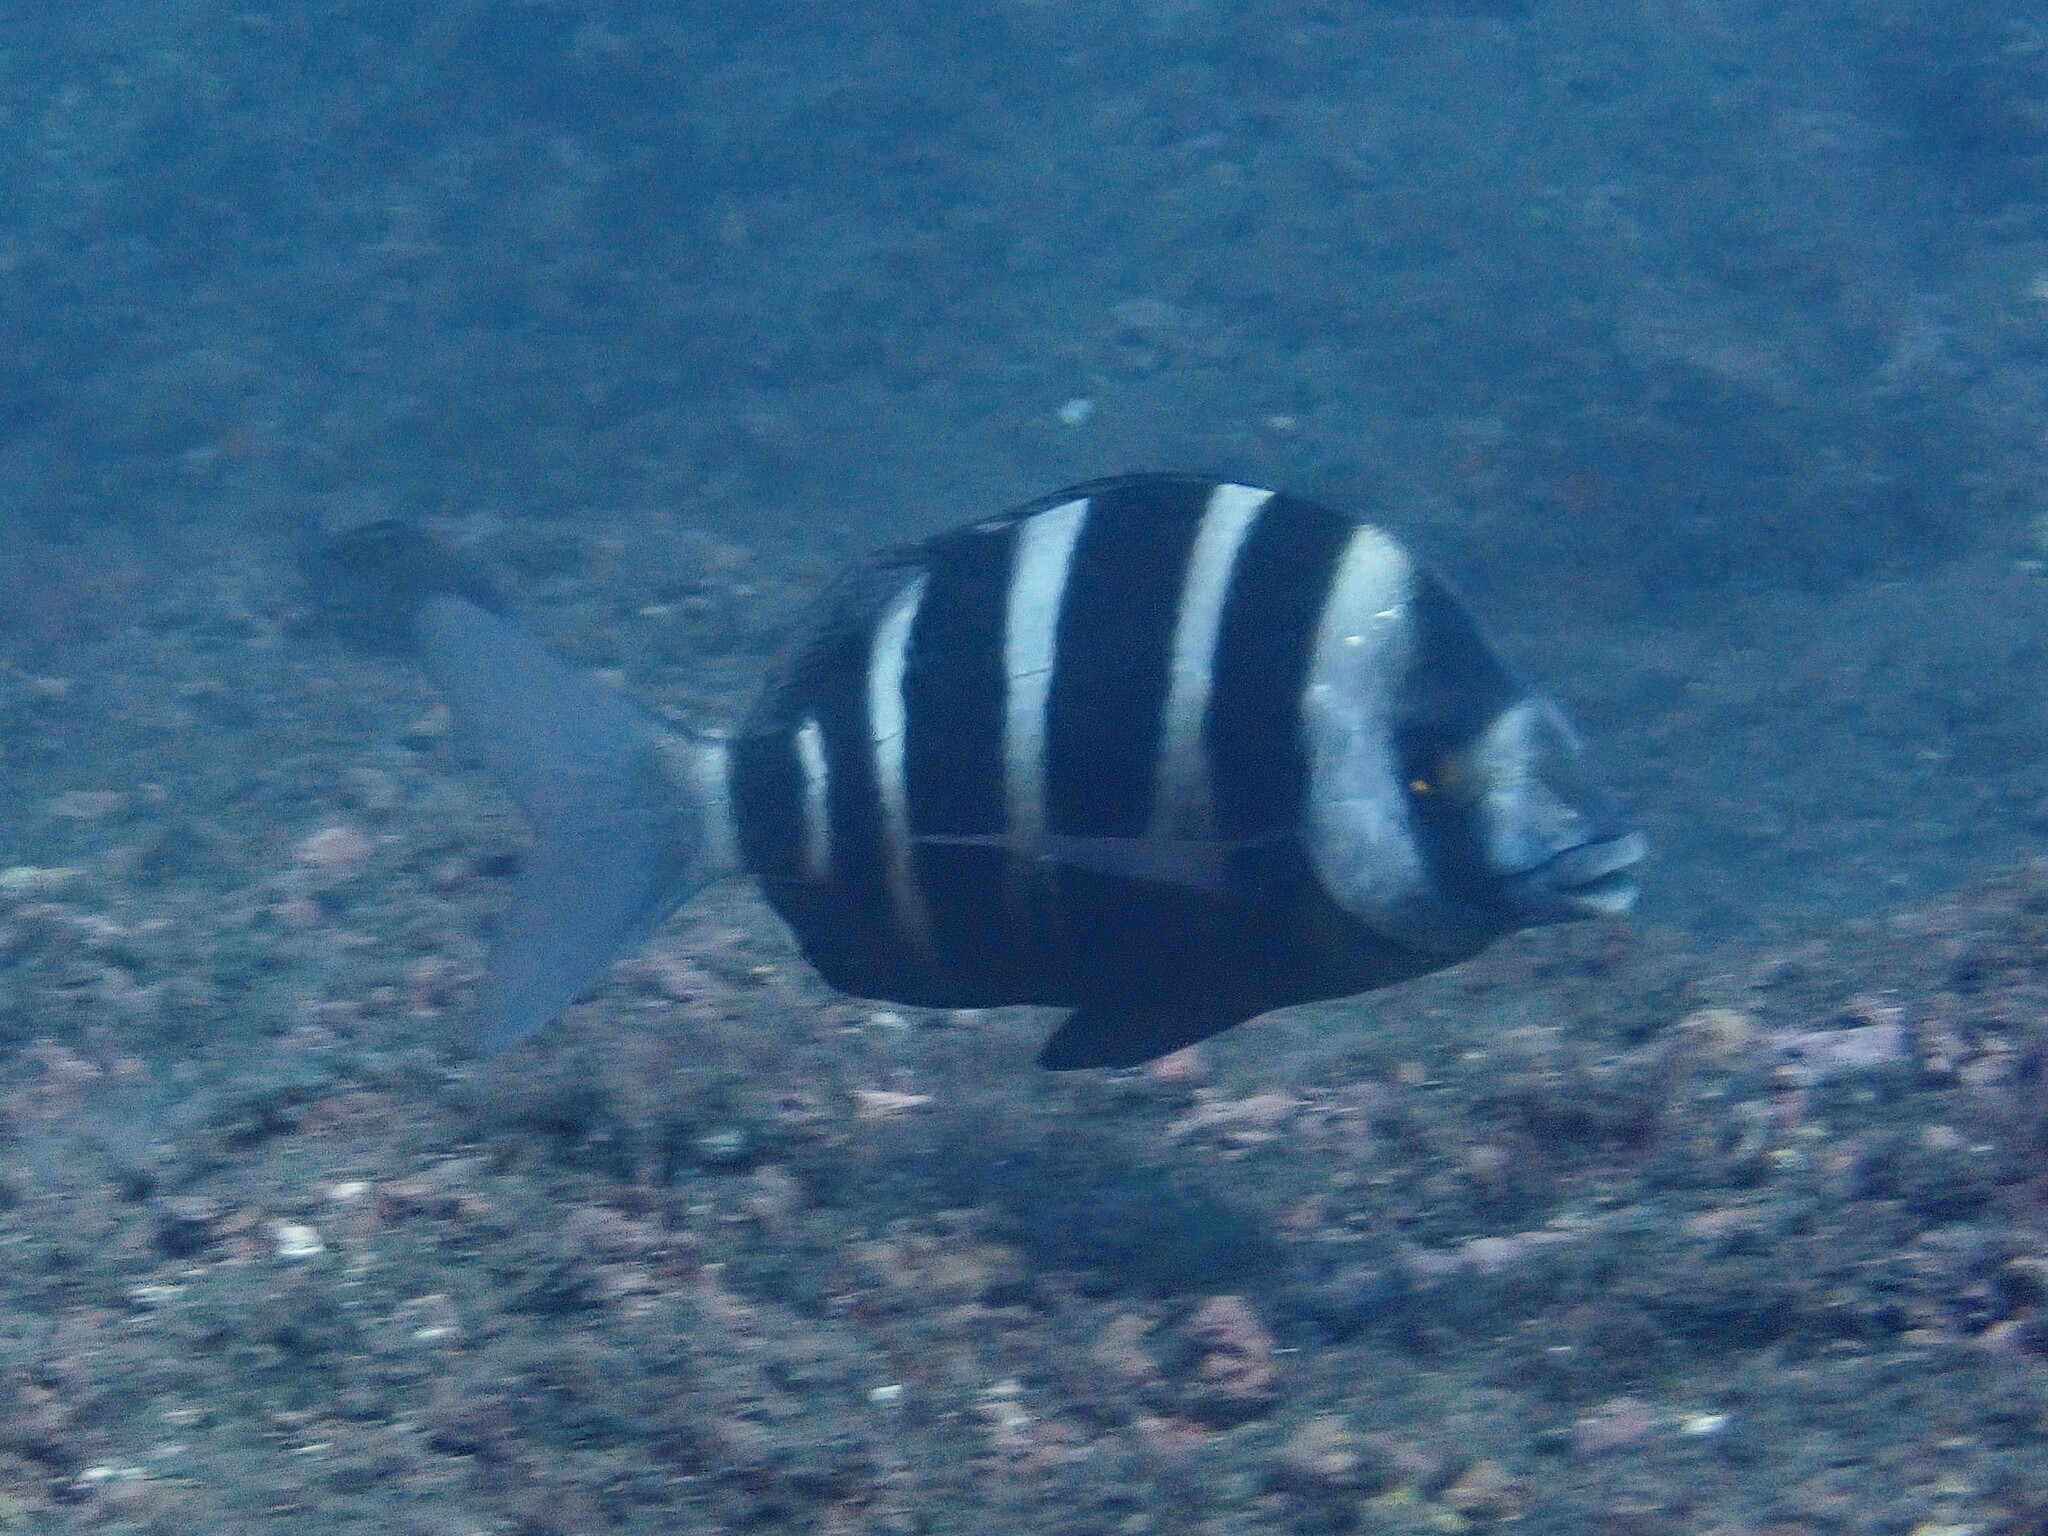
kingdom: Animalia
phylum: Chordata
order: Perciformes
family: Sparidae
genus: Diplodus
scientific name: Diplodus cervinus
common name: Oman porgy
